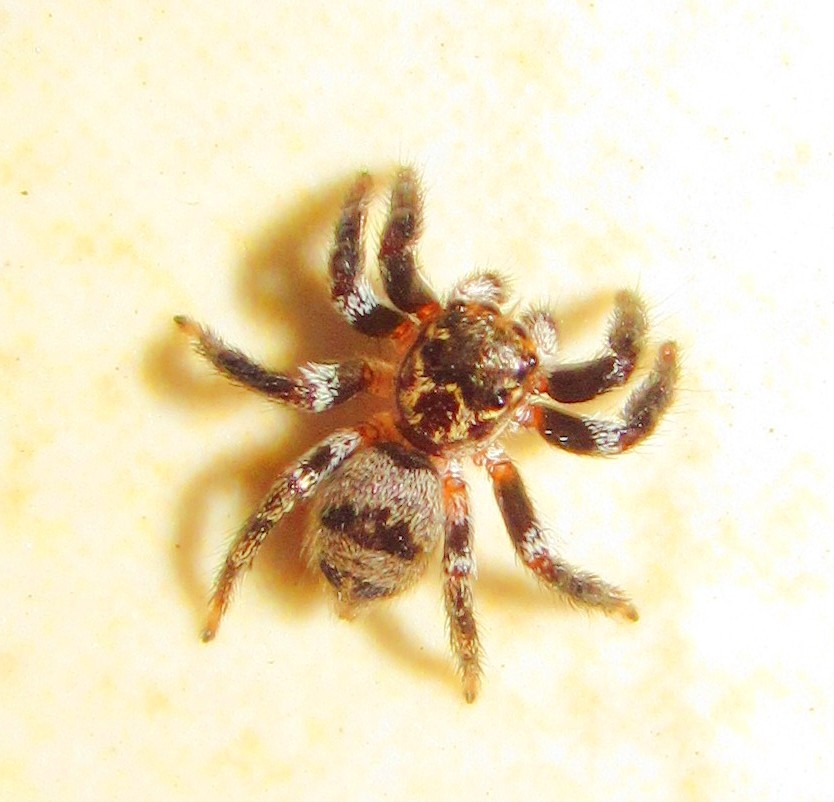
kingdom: Animalia
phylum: Arthropoda
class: Arachnida
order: Araneae
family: Salticidae
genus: Corythalia
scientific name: Corythalia conferta
